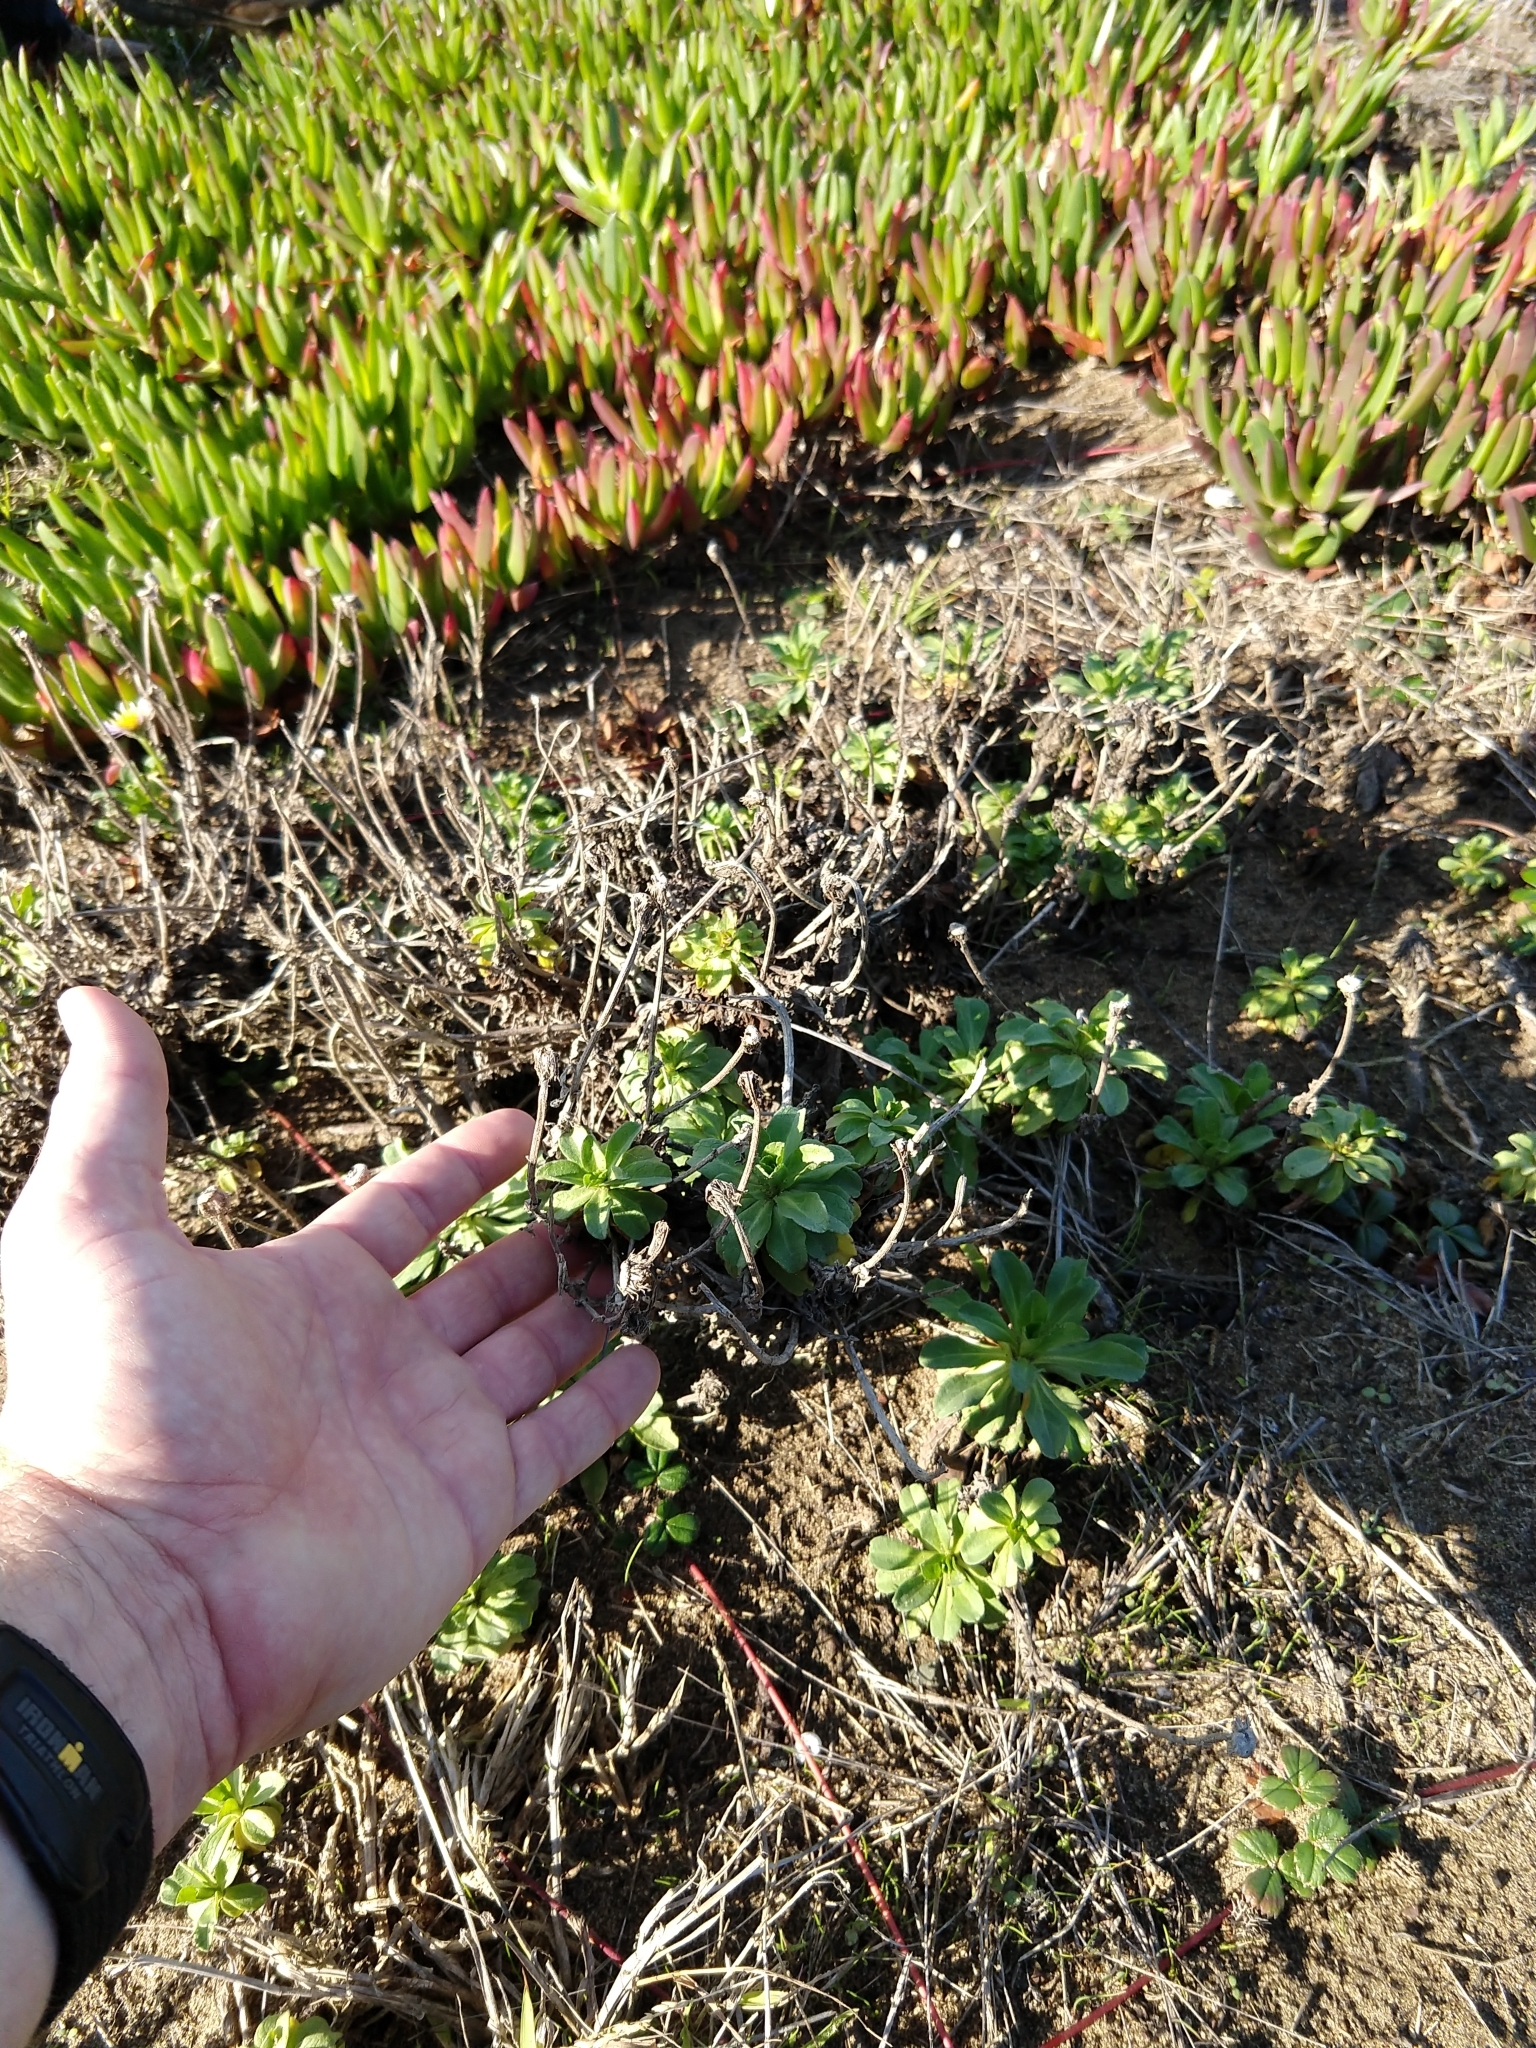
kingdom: Plantae
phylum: Tracheophyta
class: Magnoliopsida
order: Asterales
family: Asteraceae
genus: Erigeron
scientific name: Erigeron glaucus
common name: Seaside daisy
